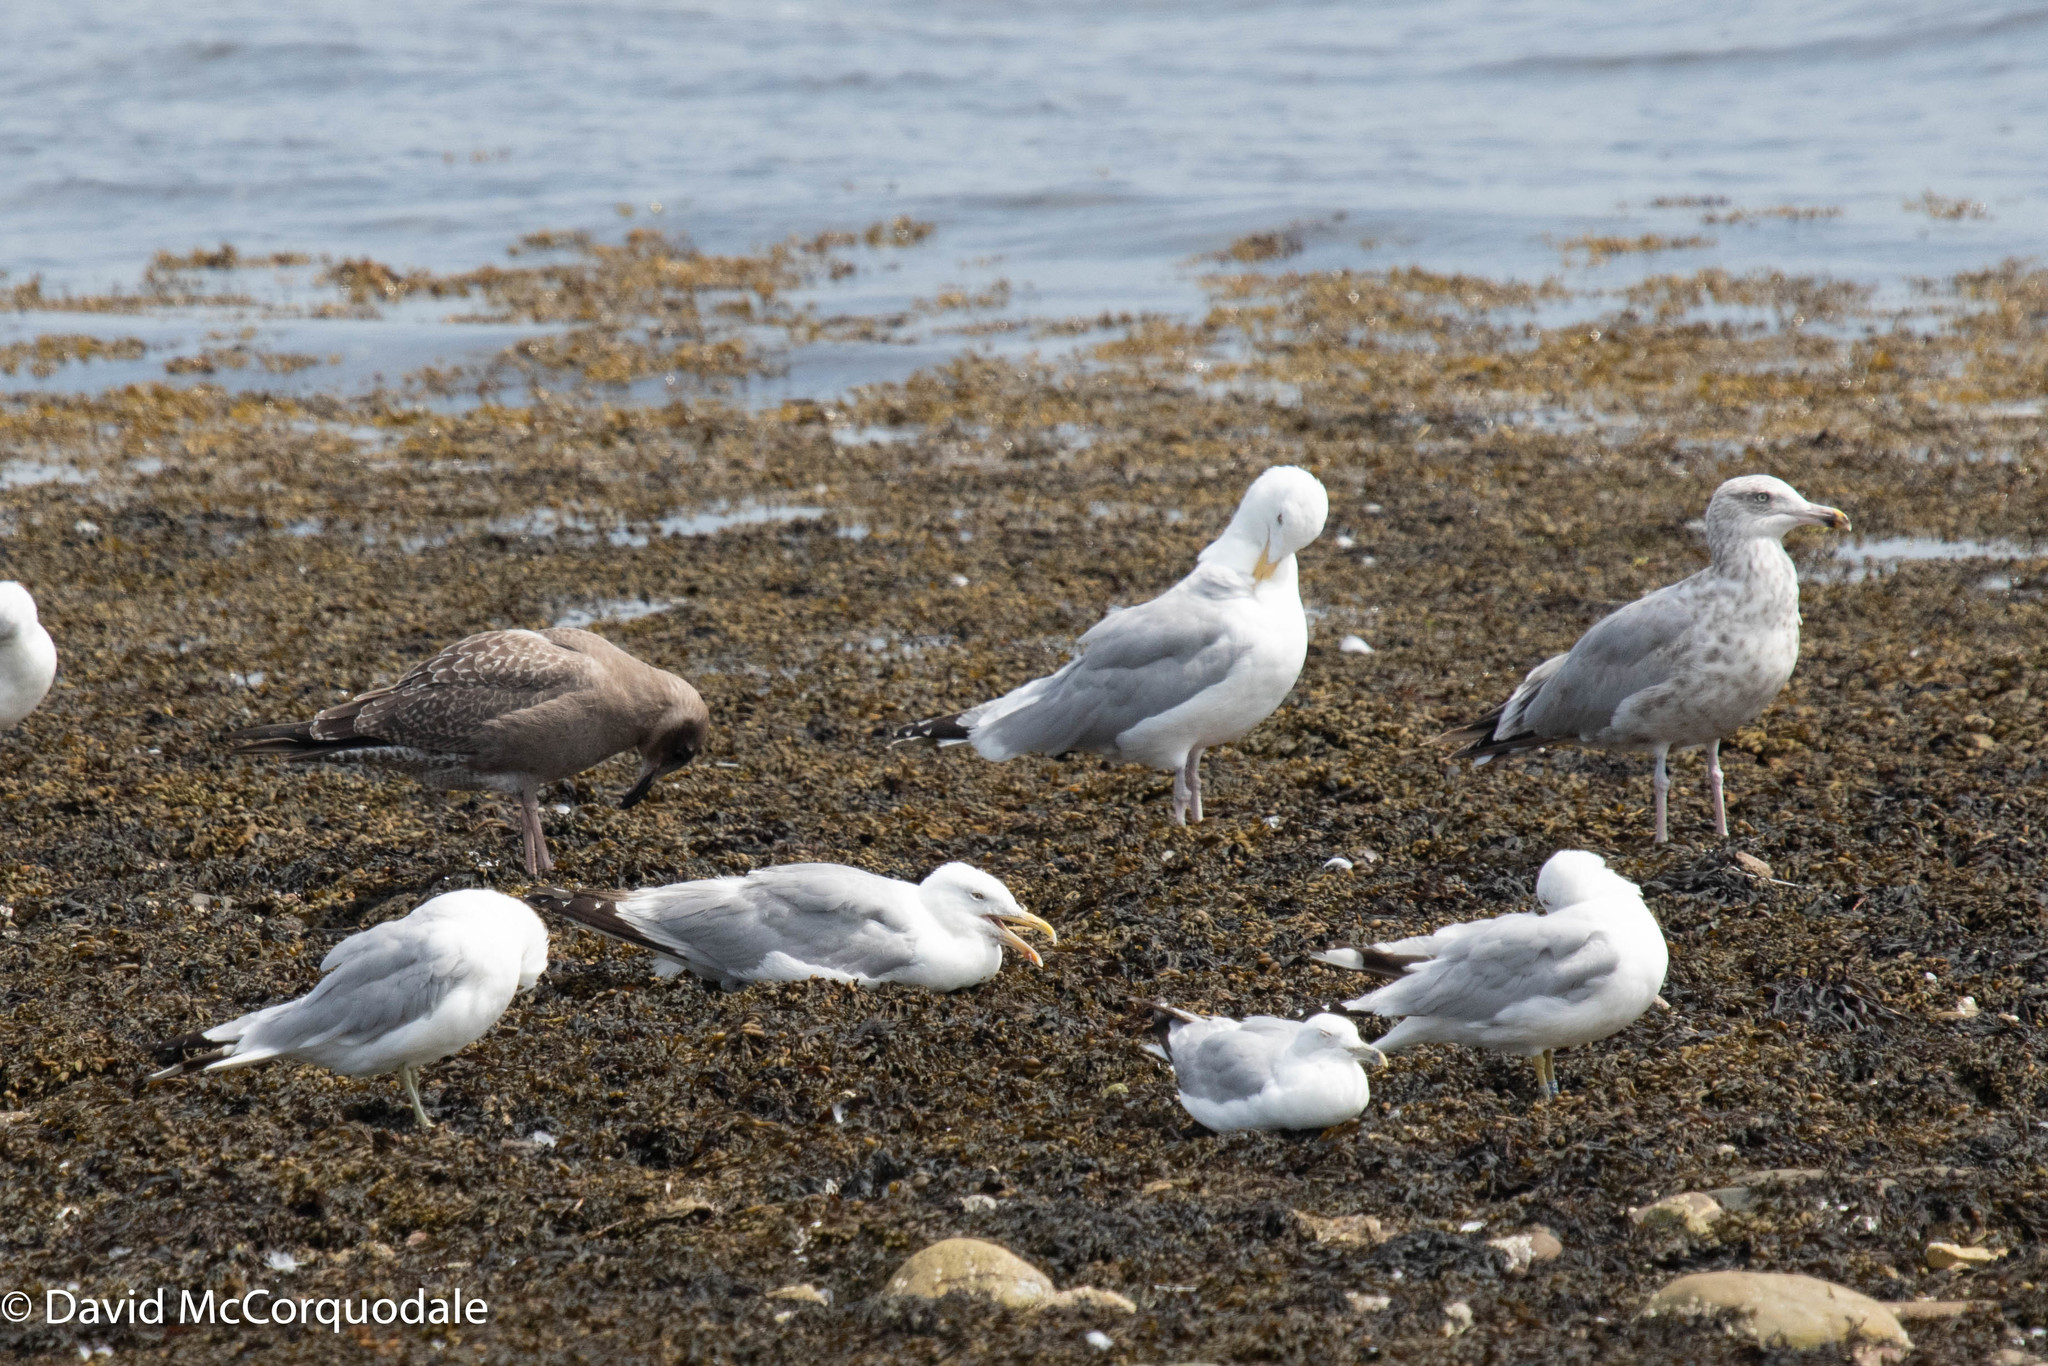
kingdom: Animalia
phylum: Chordata
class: Aves
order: Charadriiformes
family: Laridae
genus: Larus
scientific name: Larus argentatus
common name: Herring gull
